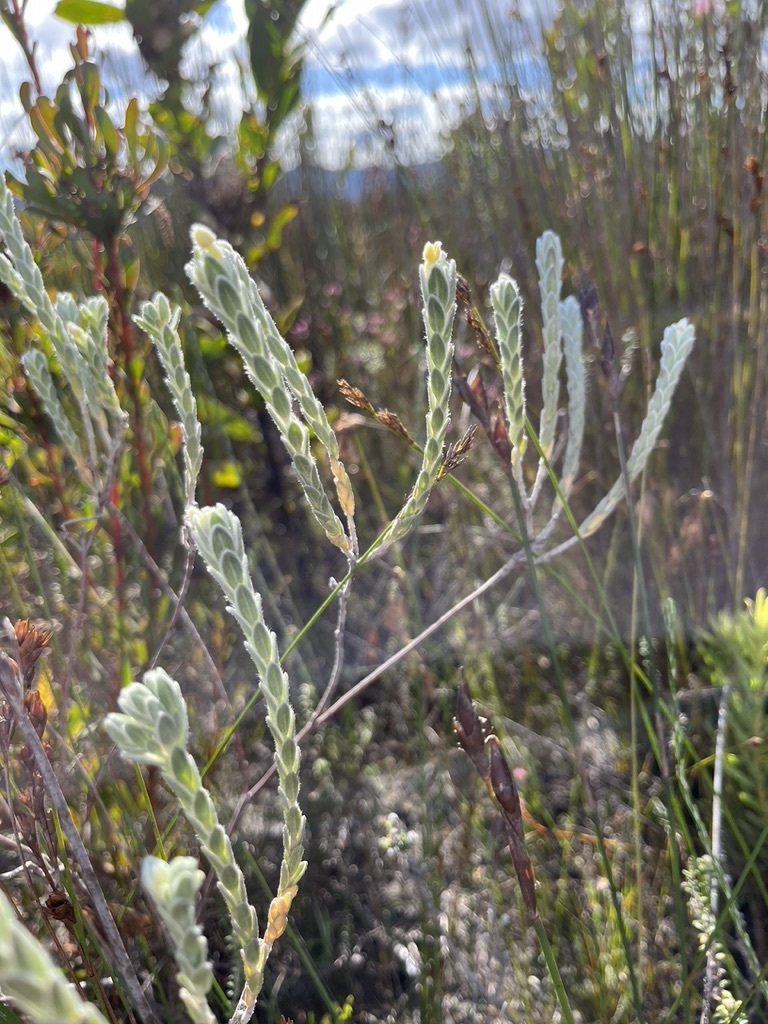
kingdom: Plantae
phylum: Tracheophyta
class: Magnoliopsida
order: Malvales
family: Thymelaeaceae
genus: Gnidia
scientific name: Gnidia anomala
